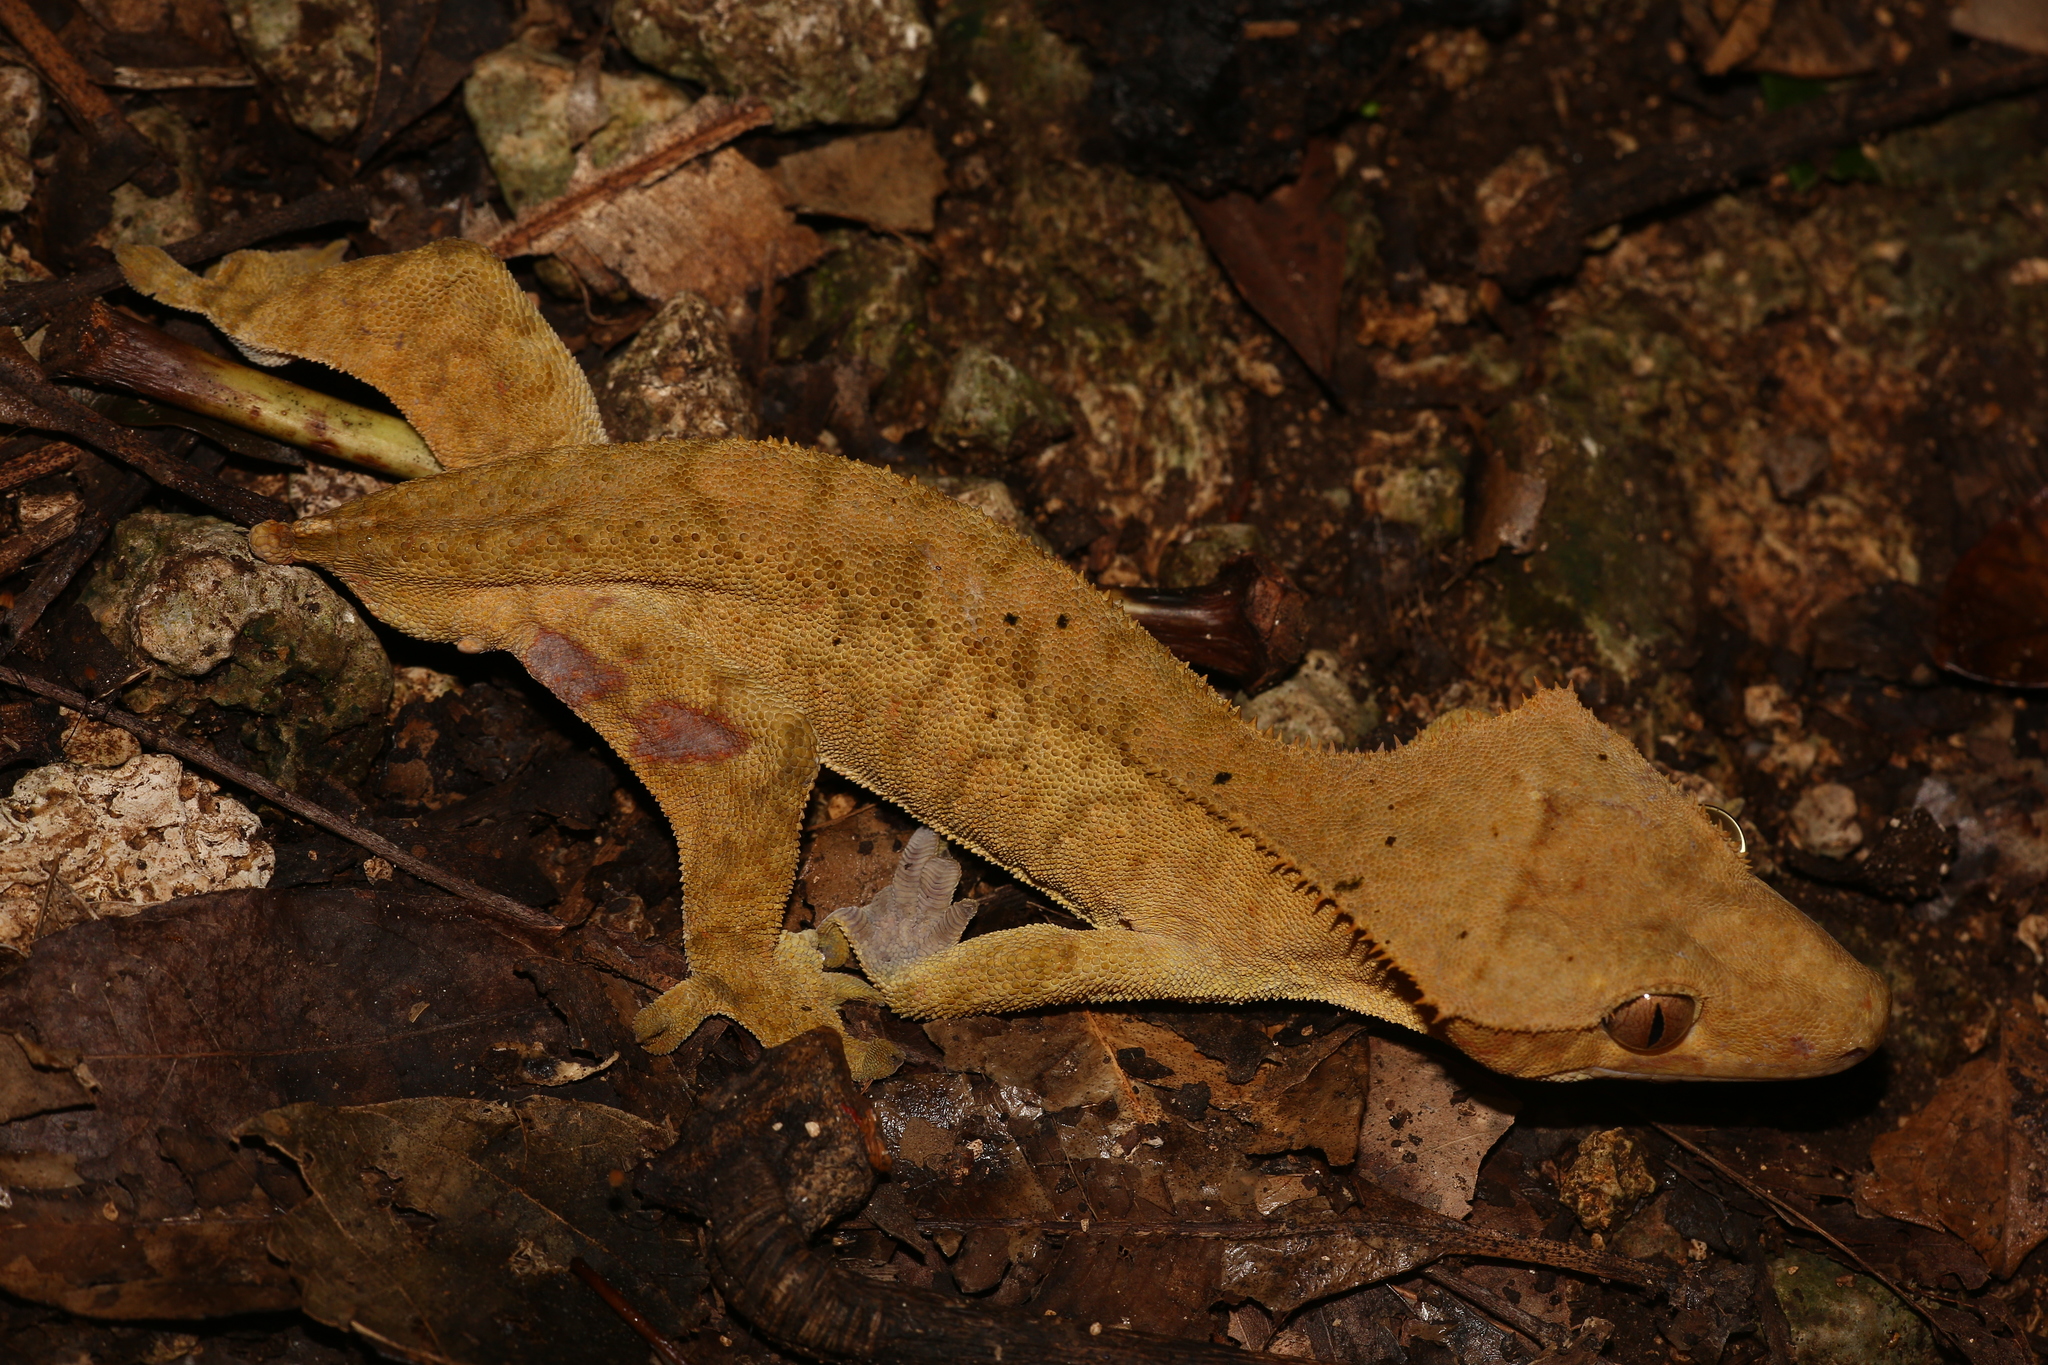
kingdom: Animalia
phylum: Chordata
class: Squamata
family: Diplodactylidae
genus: Correlophus
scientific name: Correlophus ciliatus
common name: Crested gecko
